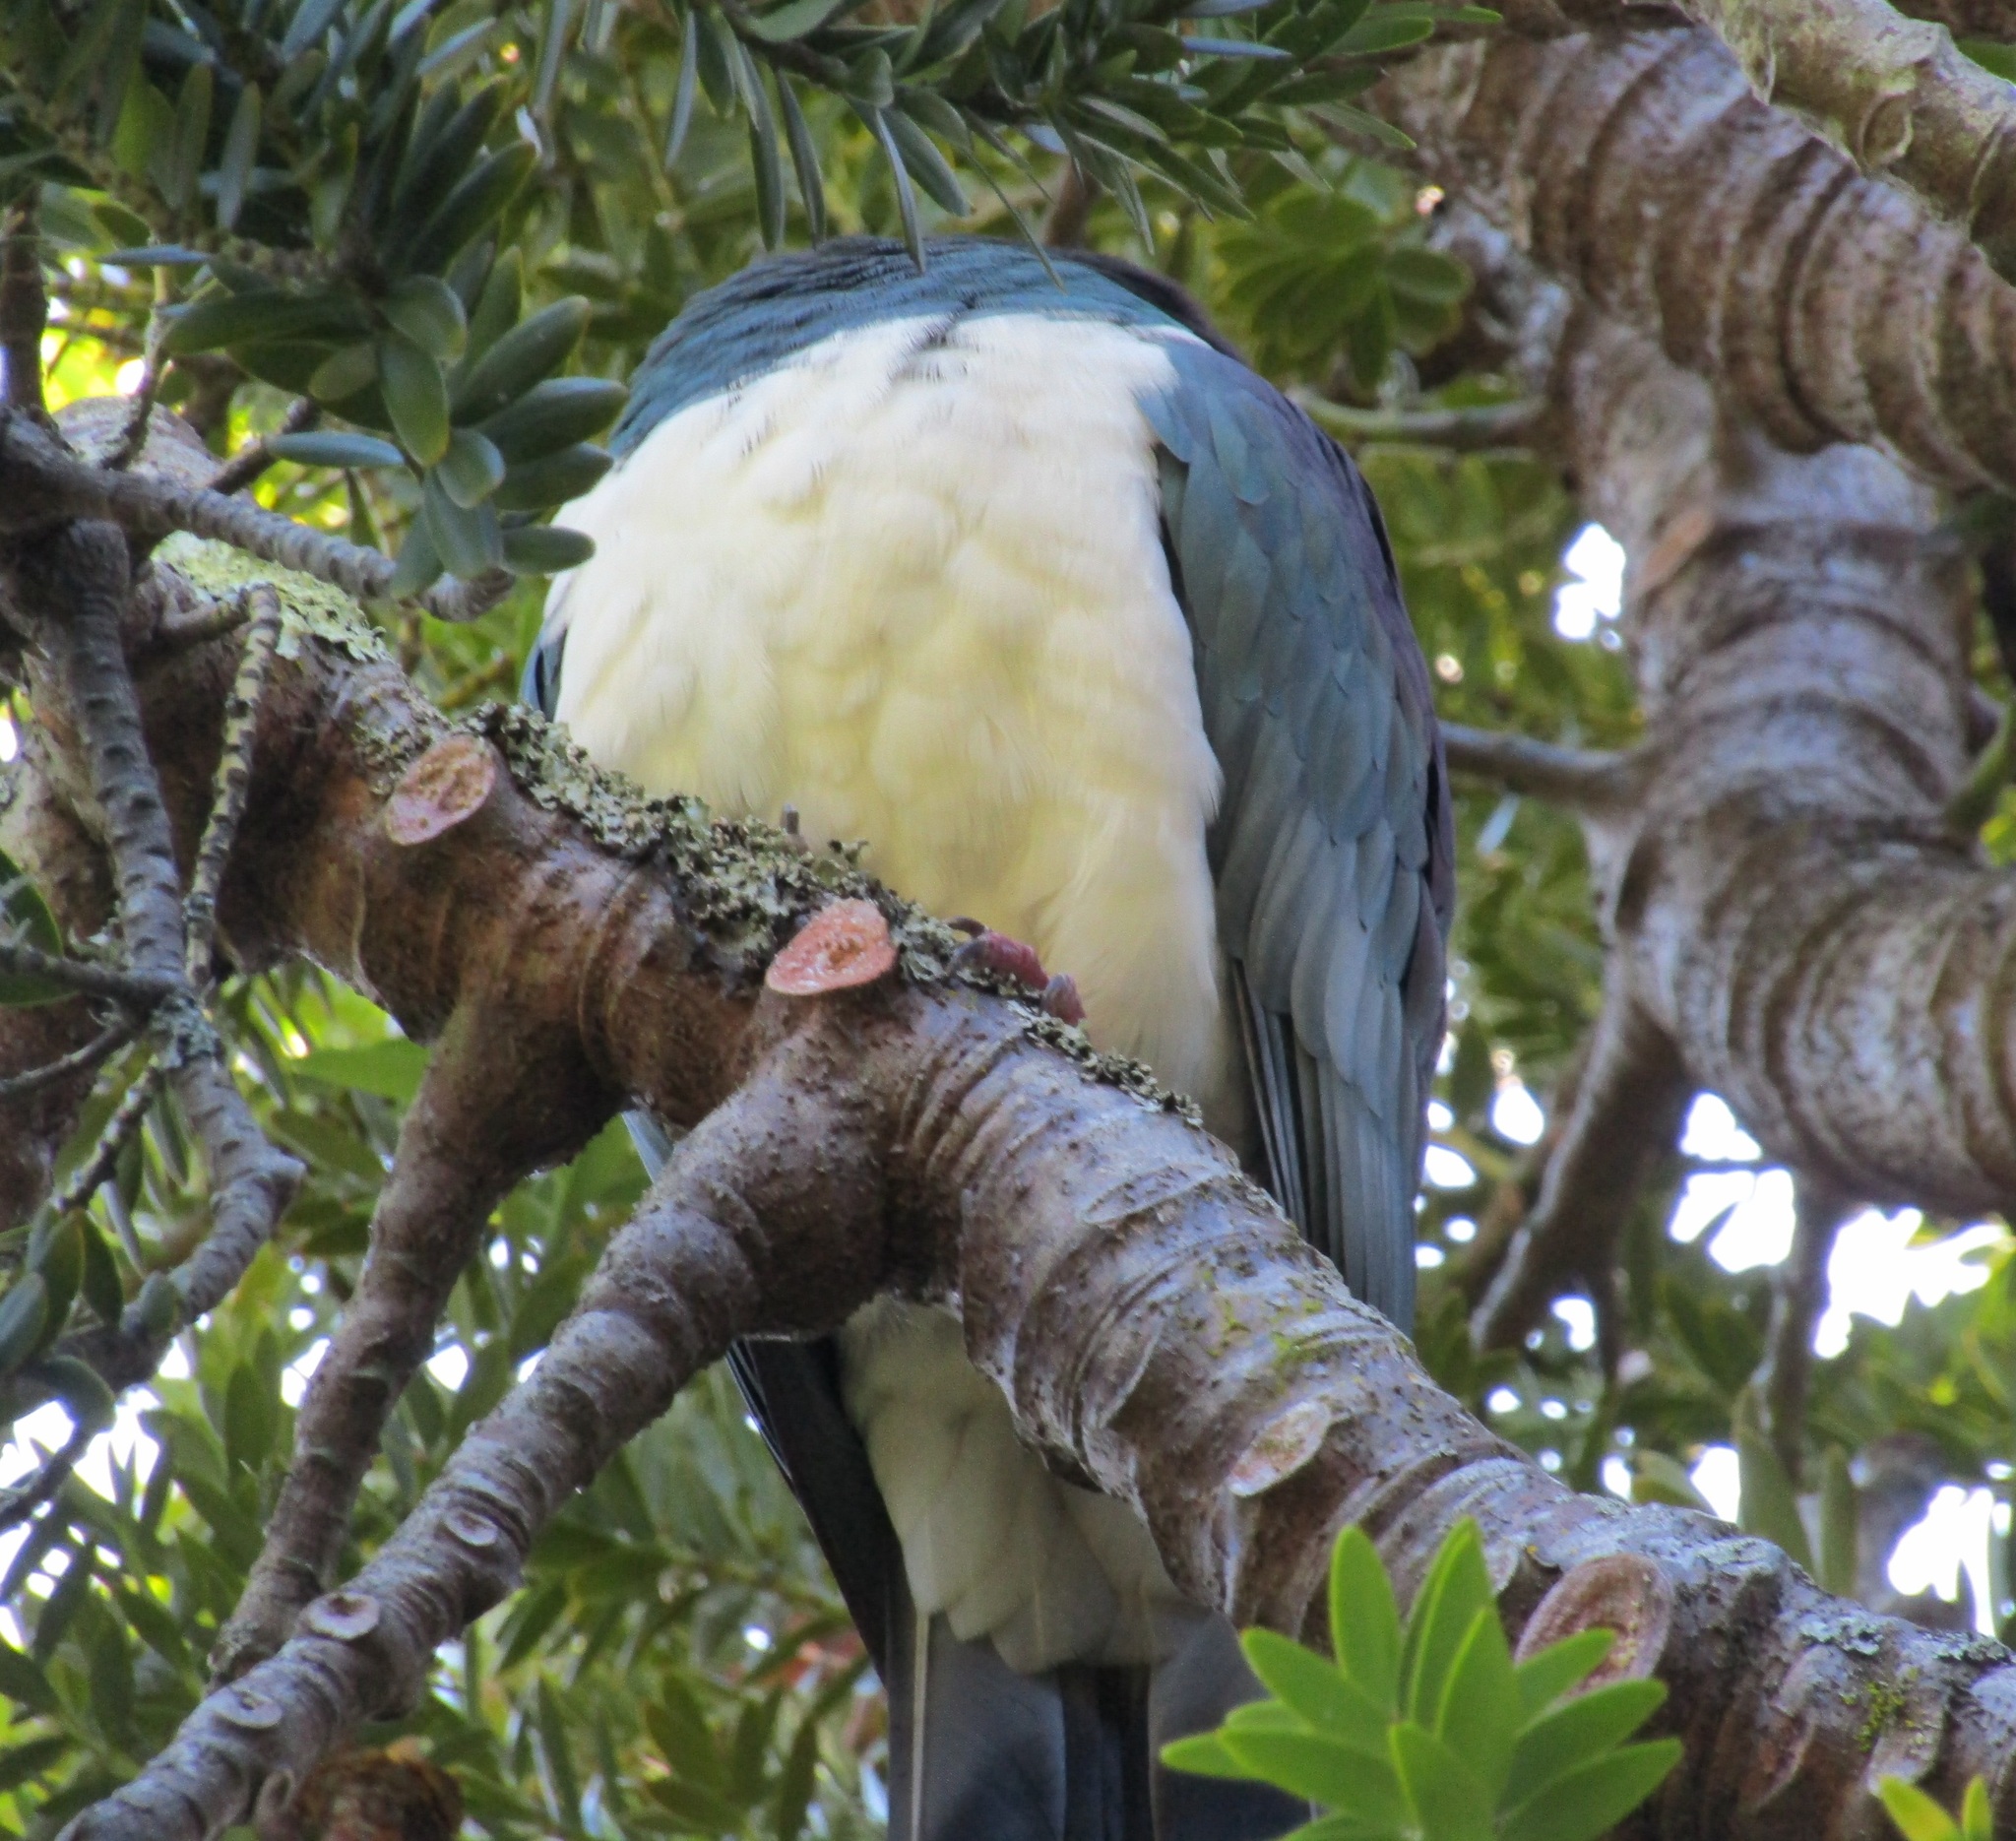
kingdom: Animalia
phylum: Chordata
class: Aves
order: Columbiformes
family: Columbidae
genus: Hemiphaga
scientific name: Hemiphaga novaeseelandiae
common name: New zealand pigeon
